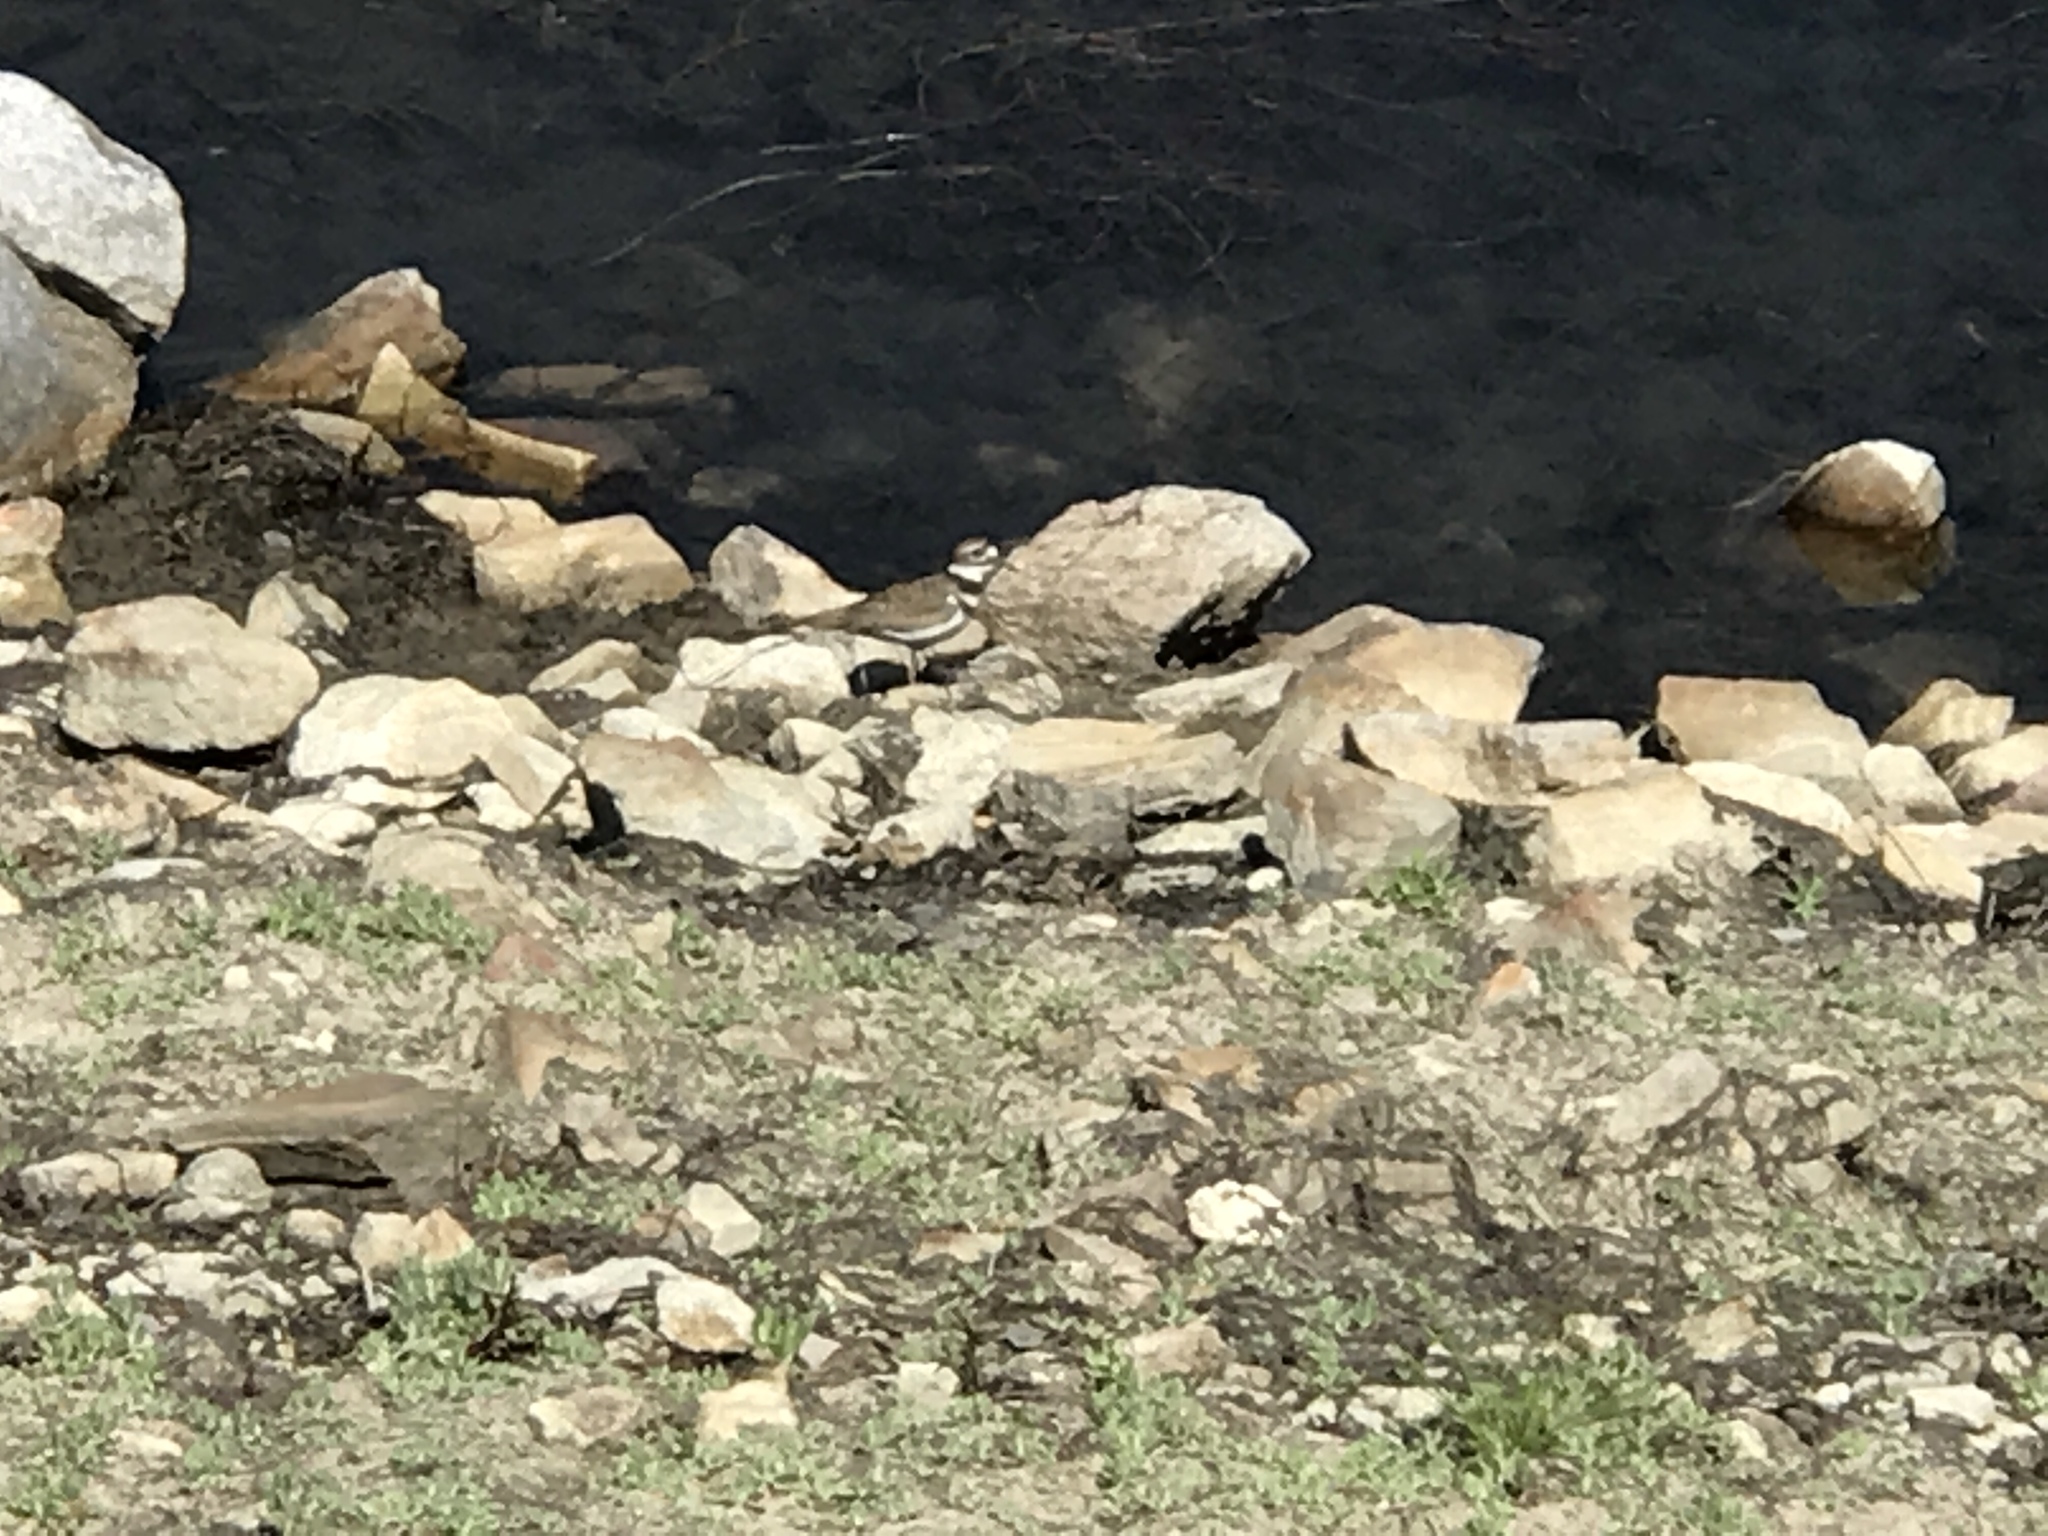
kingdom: Animalia
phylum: Chordata
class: Aves
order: Charadriiformes
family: Charadriidae
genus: Charadrius
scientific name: Charadrius vociferus
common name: Killdeer
